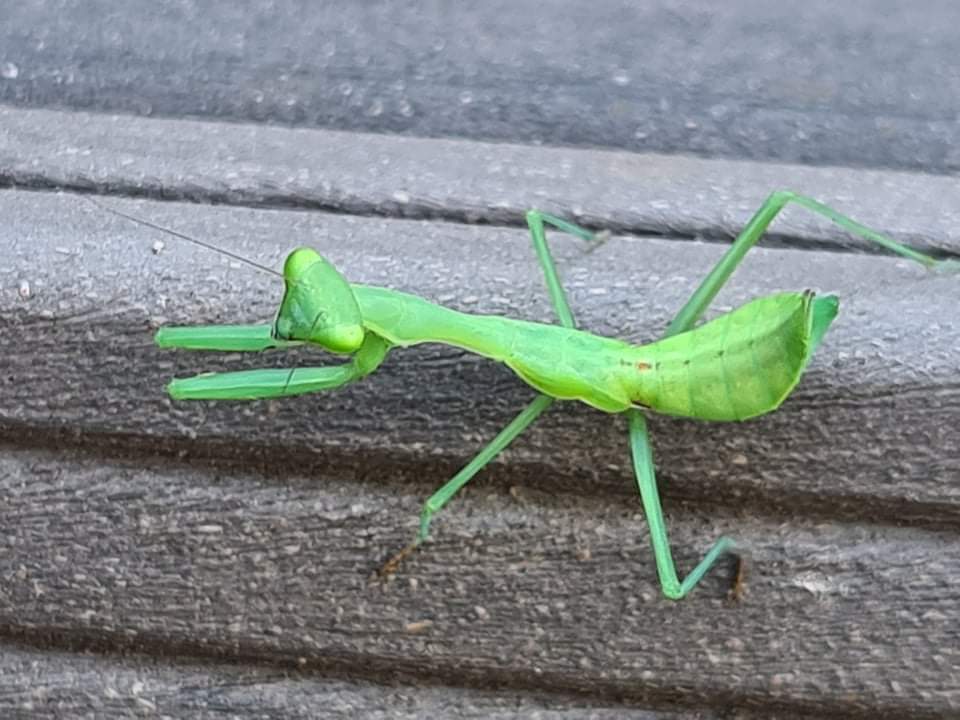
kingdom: Animalia
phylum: Arthropoda
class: Insecta
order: Mantodea
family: Miomantidae
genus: Miomantis
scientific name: Miomantis caffra
